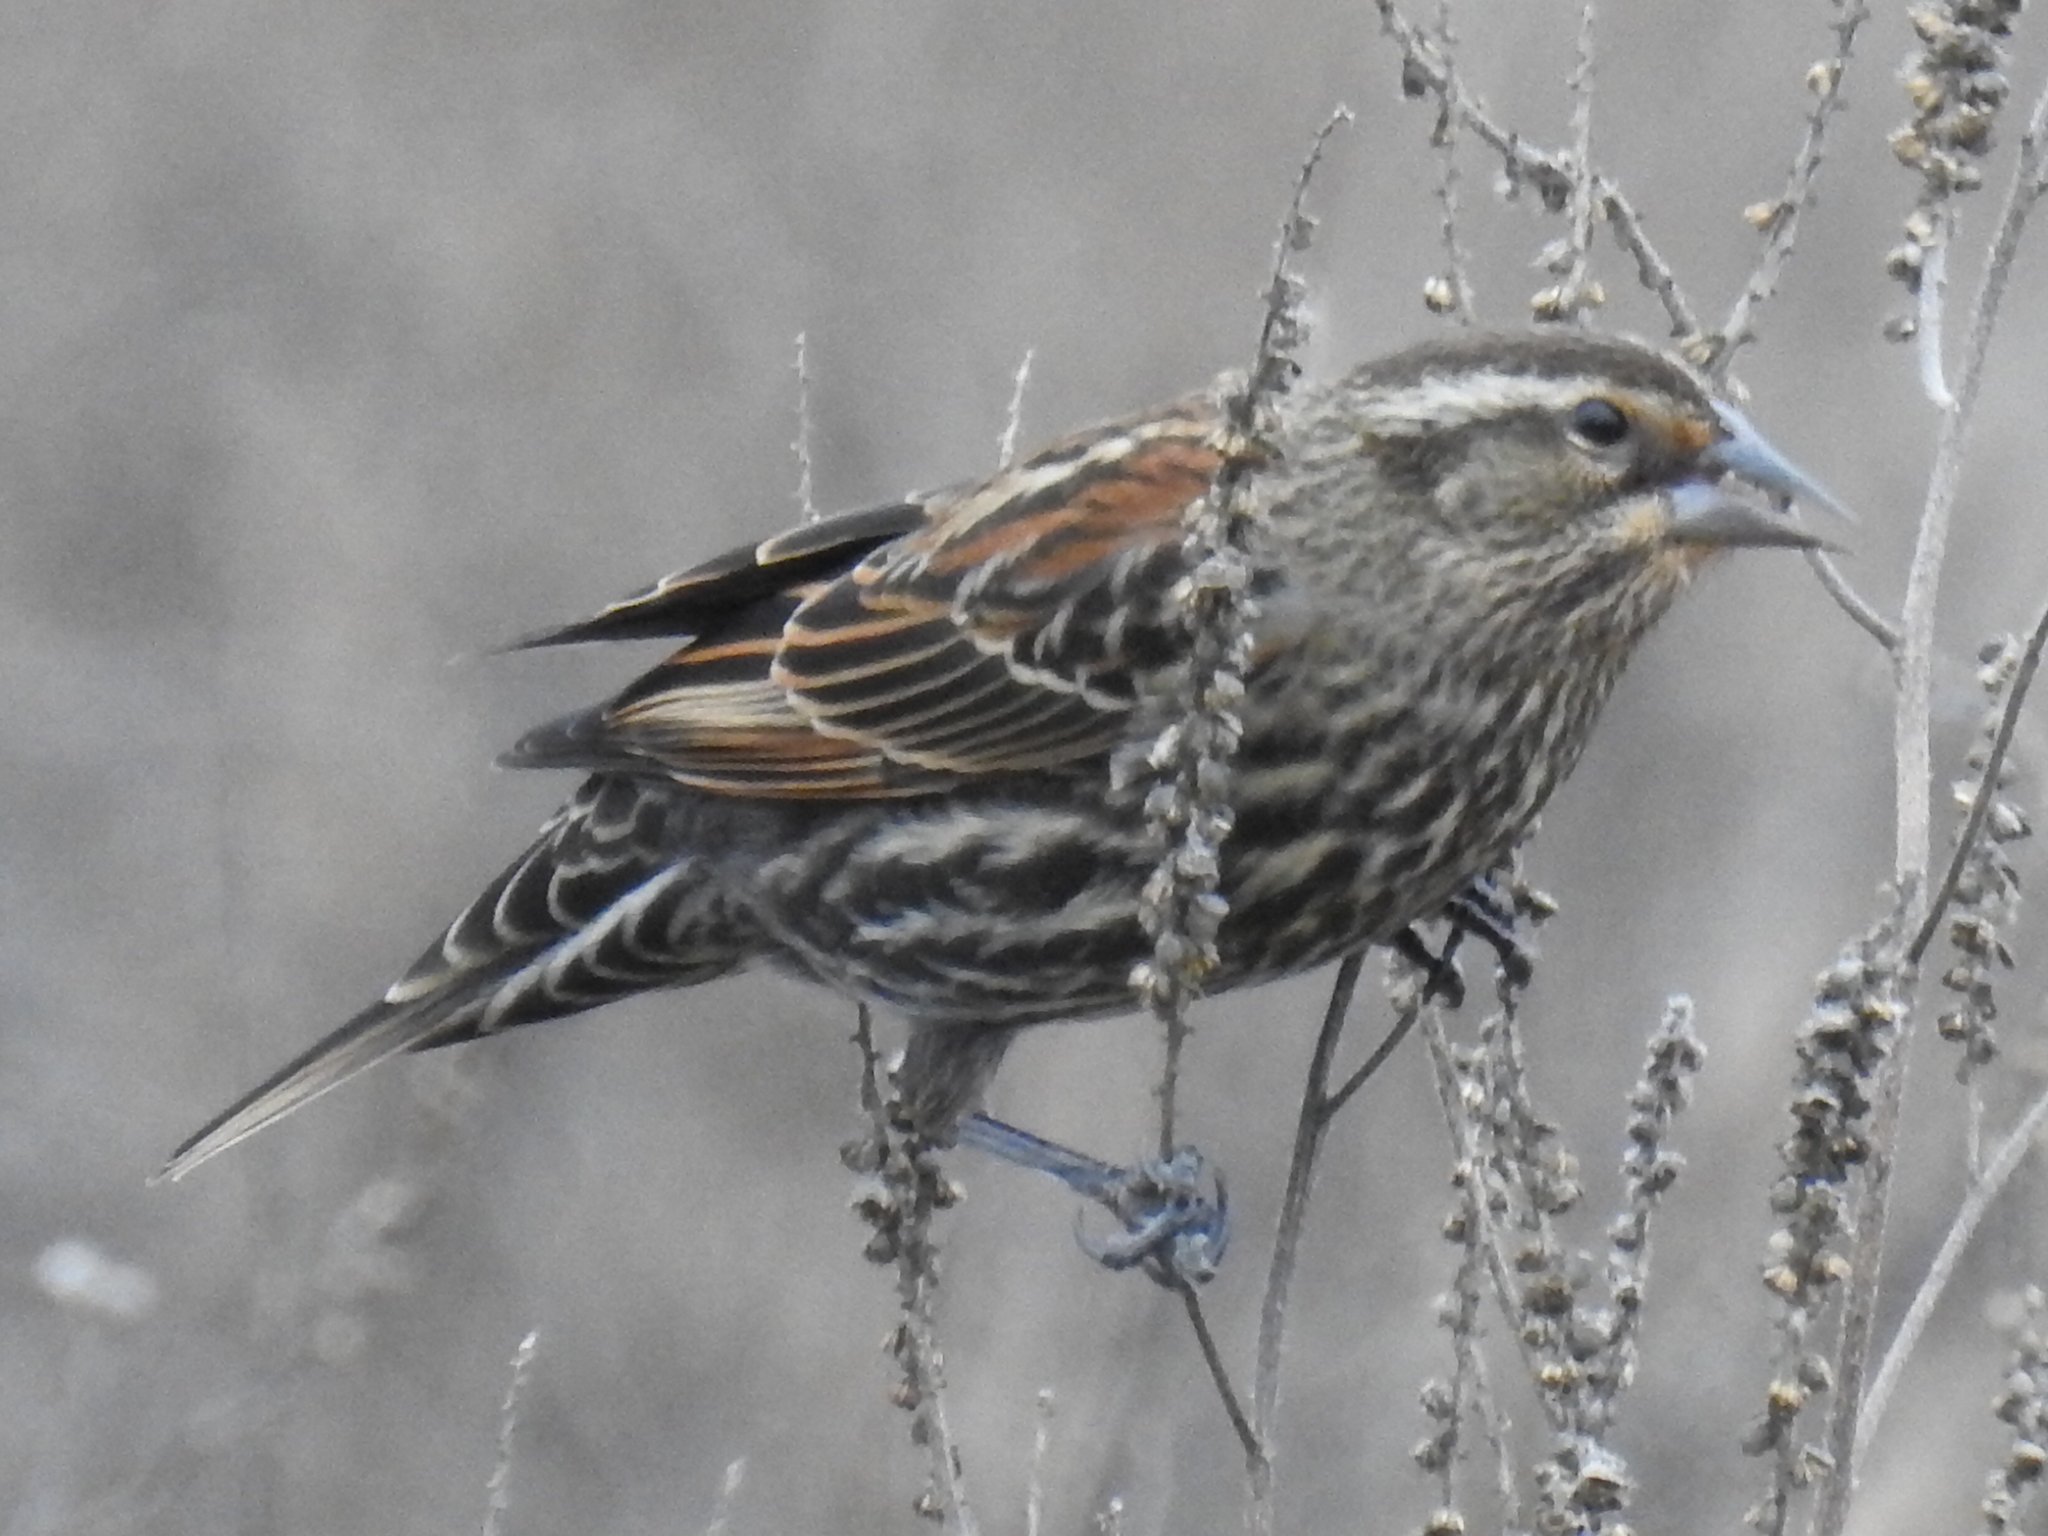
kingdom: Animalia
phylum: Chordata
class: Aves
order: Passeriformes
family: Icteridae
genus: Agelaius
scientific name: Agelaius phoeniceus
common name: Red-winged blackbird
